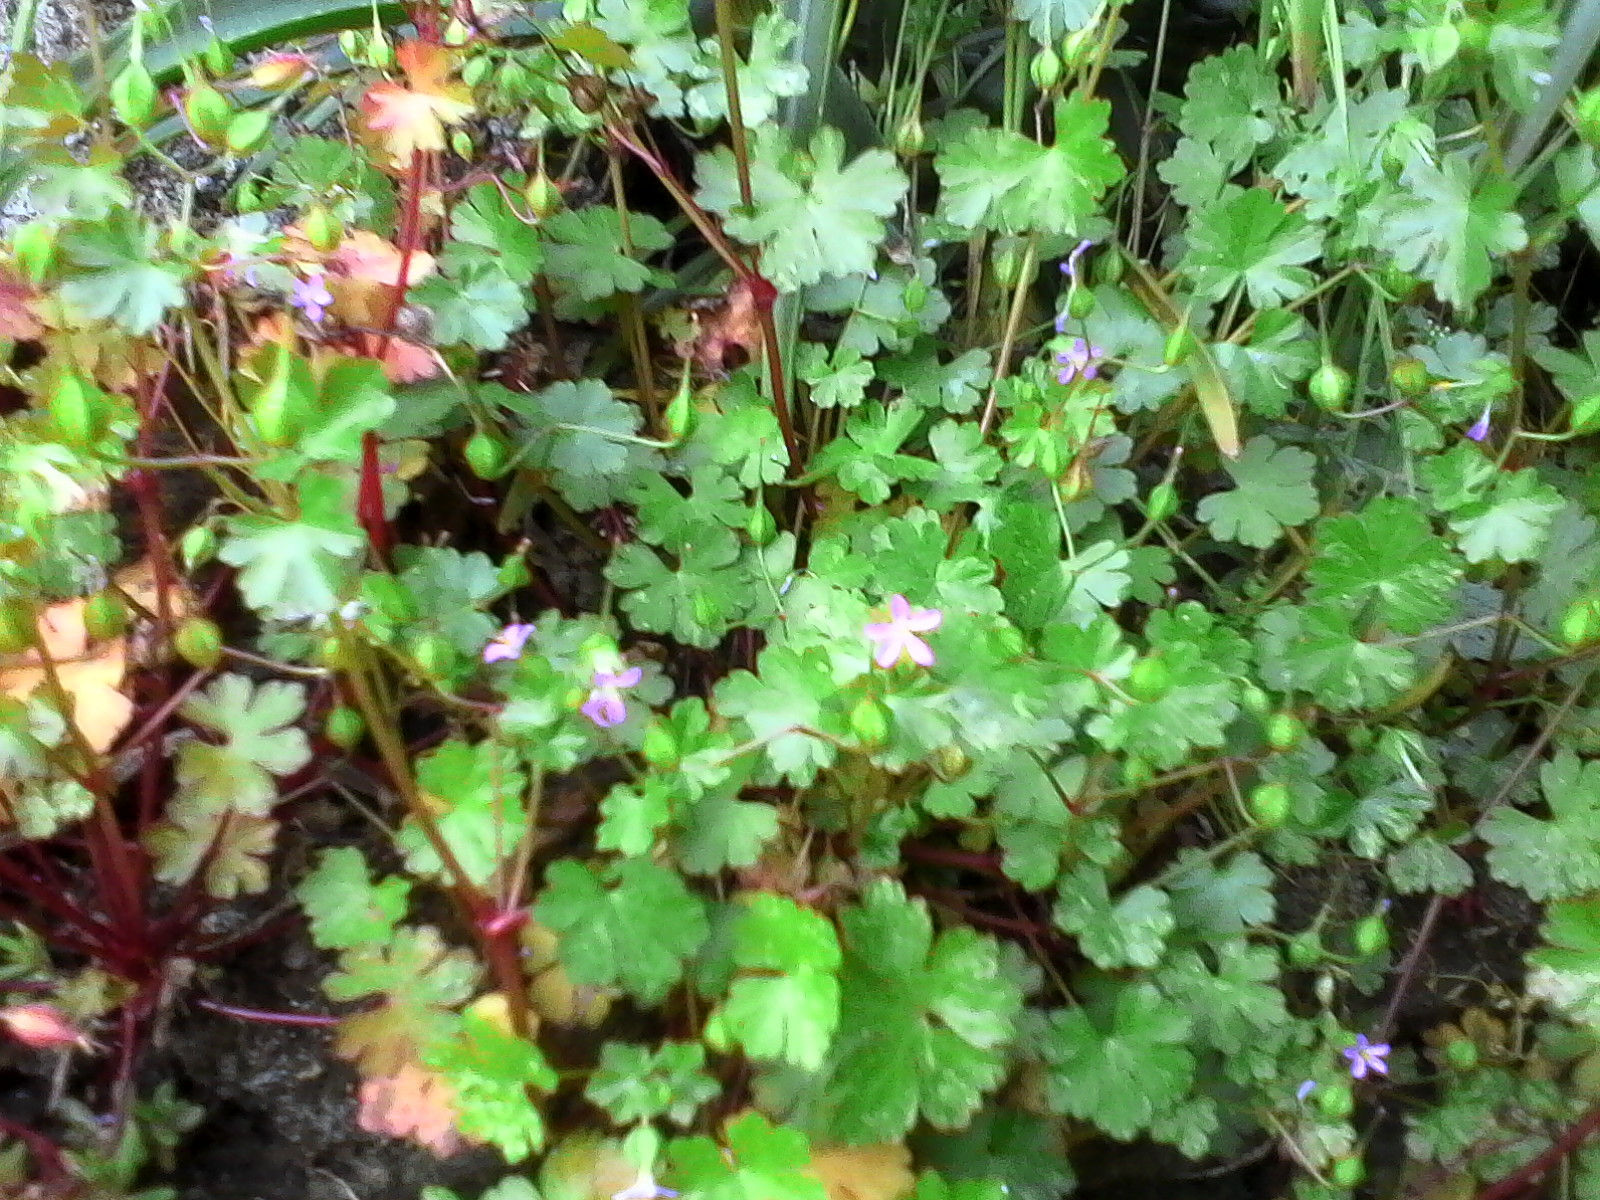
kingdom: Plantae
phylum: Tracheophyta
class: Magnoliopsida
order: Geraniales
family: Geraniaceae
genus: Geranium
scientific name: Geranium lucidum
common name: Shining crane's-bill
